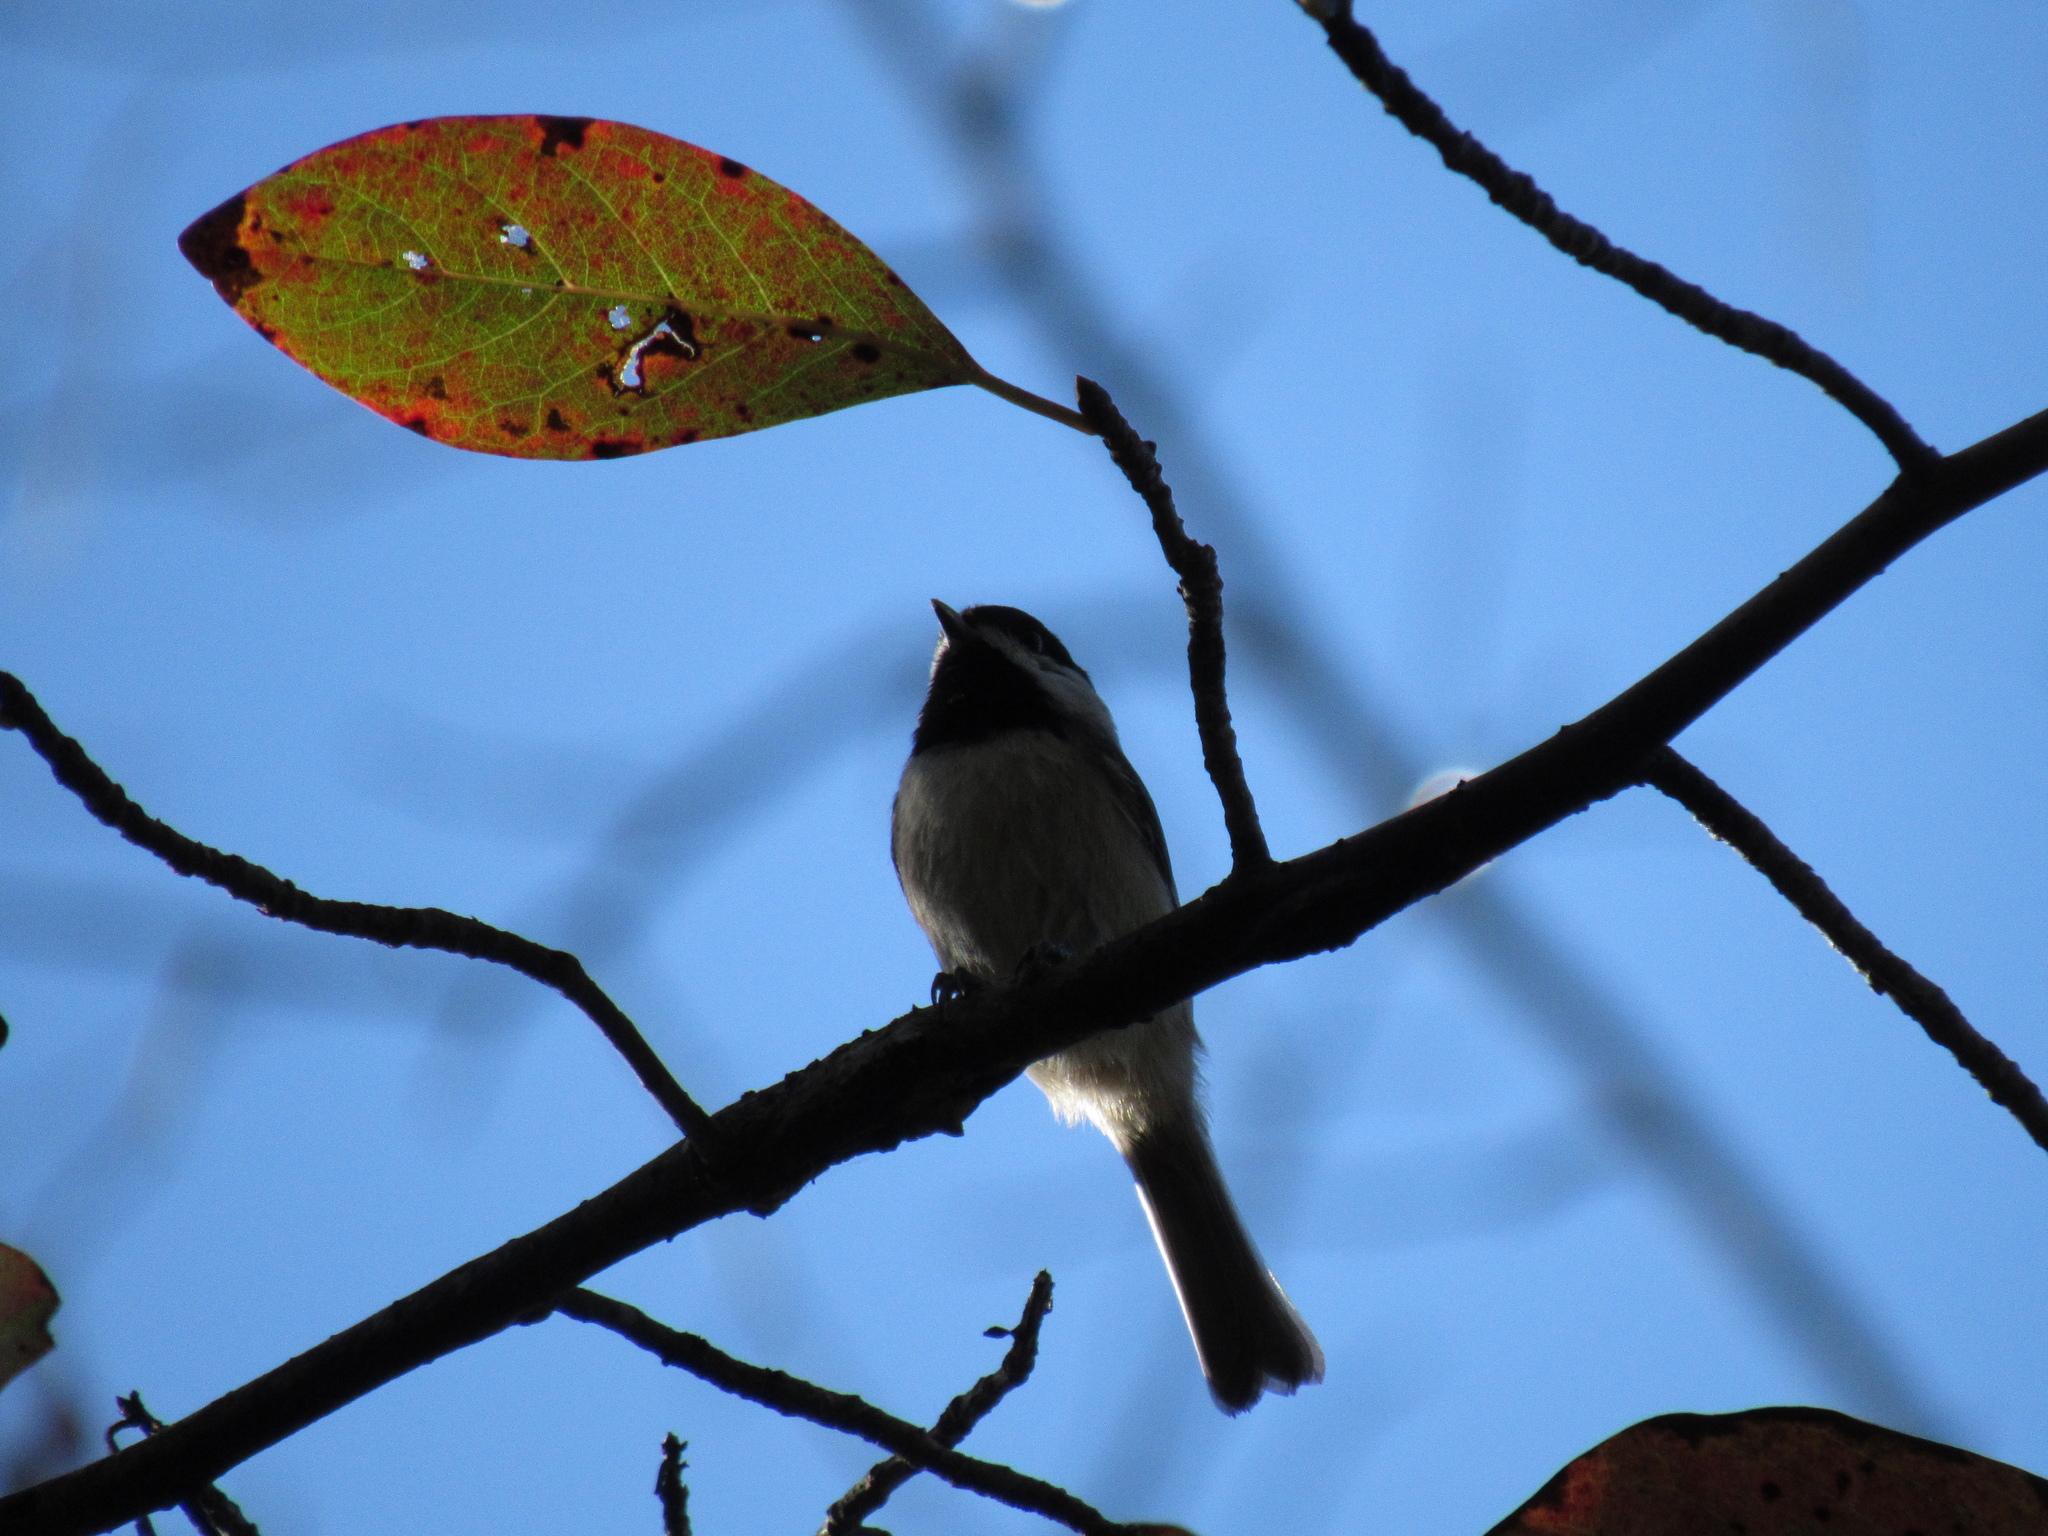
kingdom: Animalia
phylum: Chordata
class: Aves
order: Passeriformes
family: Paridae
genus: Poecile
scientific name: Poecile carolinensis
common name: Carolina chickadee
